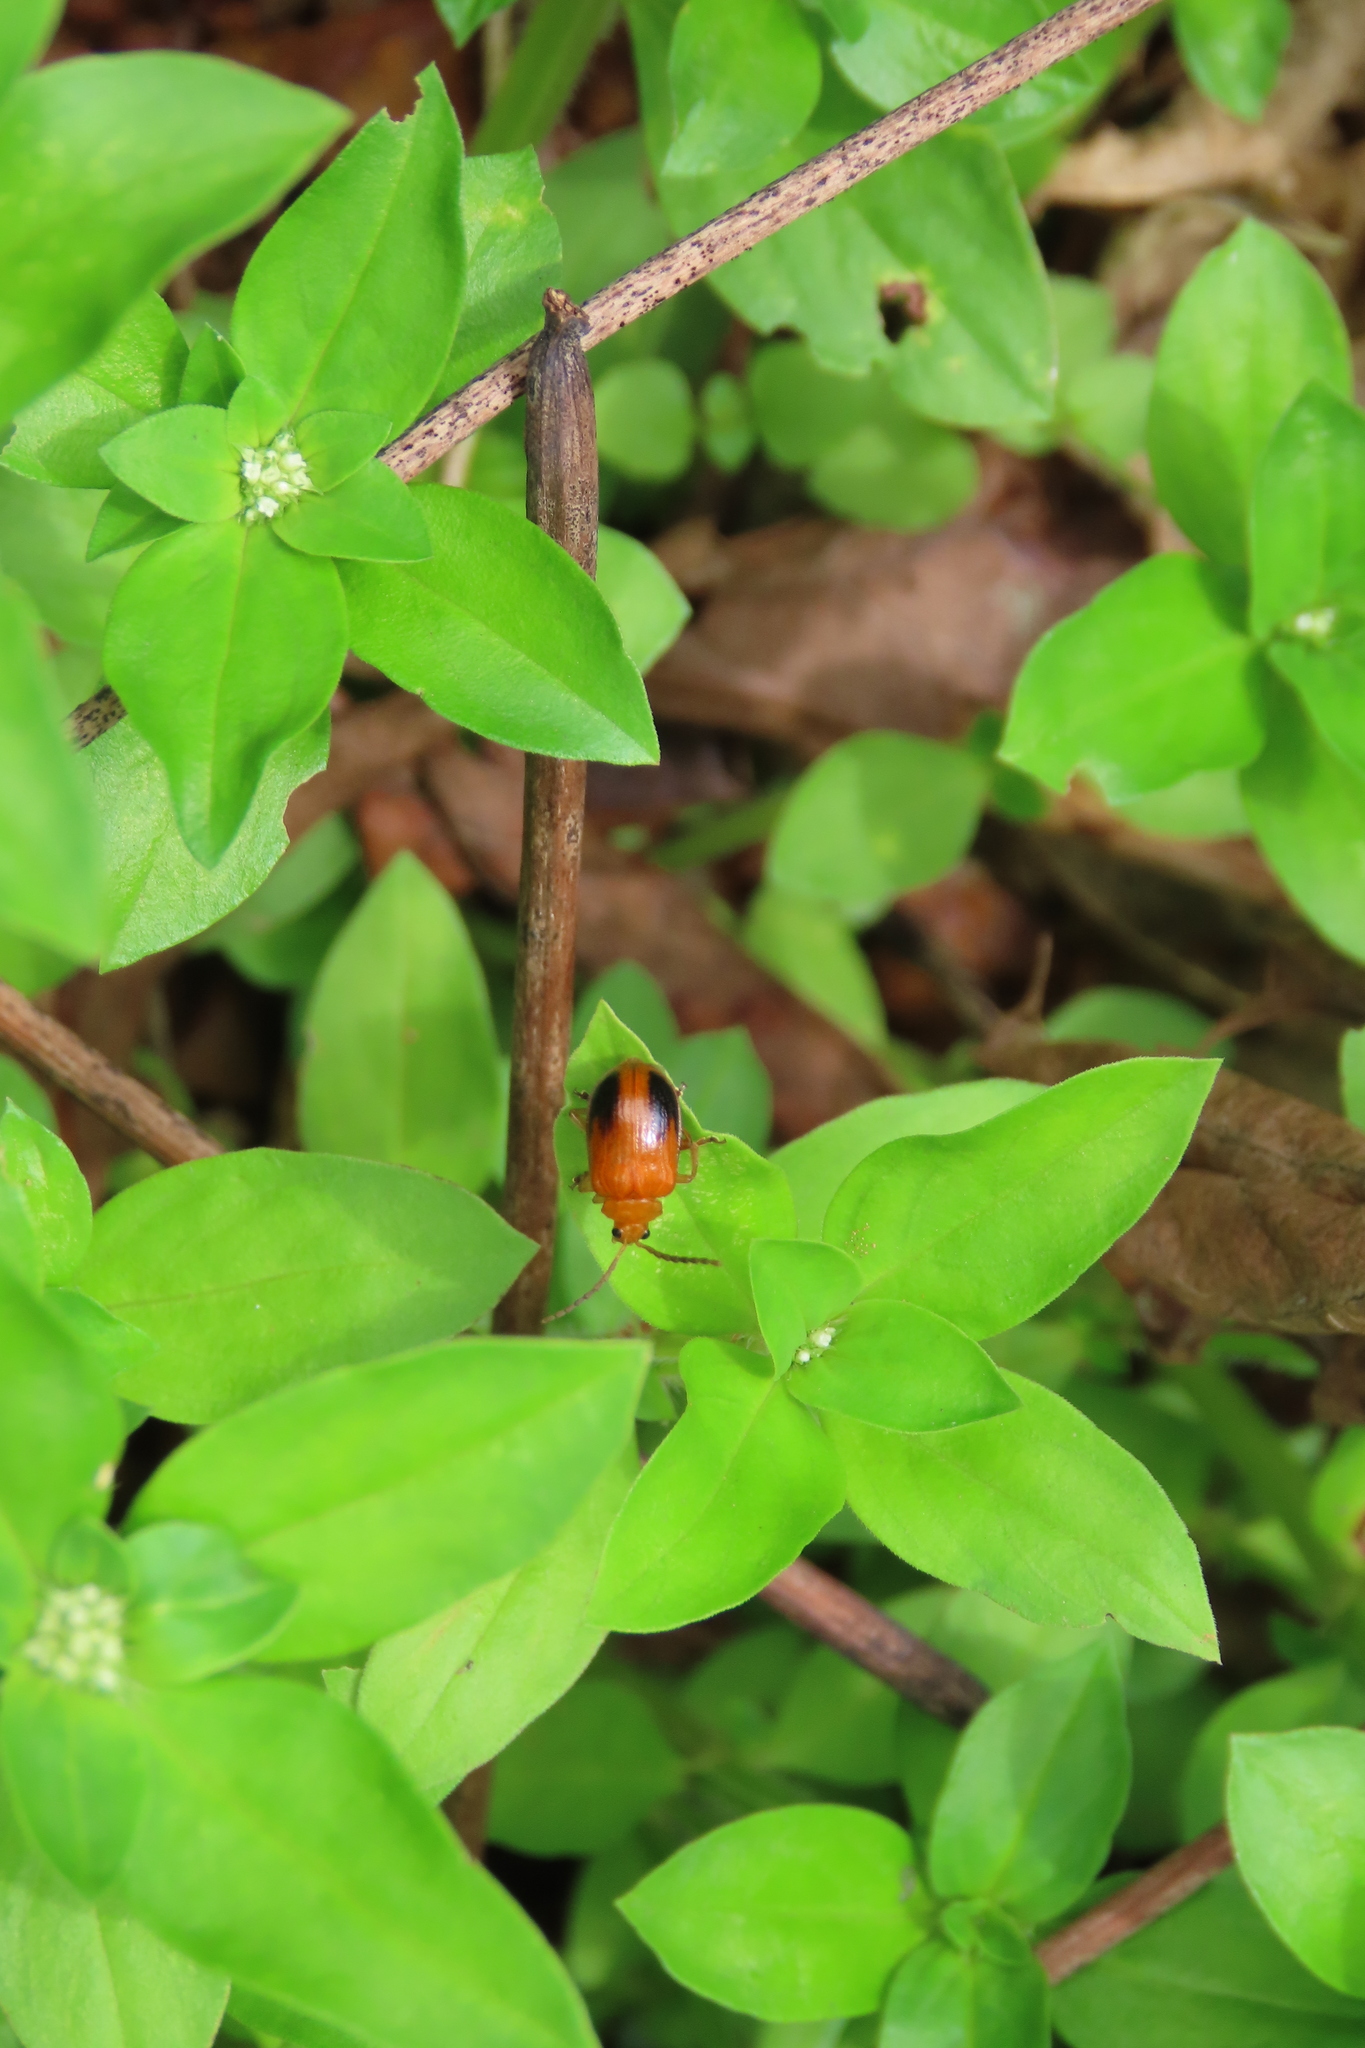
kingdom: Animalia
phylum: Arthropoda
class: Insecta
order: Coleoptera
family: Chrysomelidae
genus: Sphenoraia
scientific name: Sphenoraia
